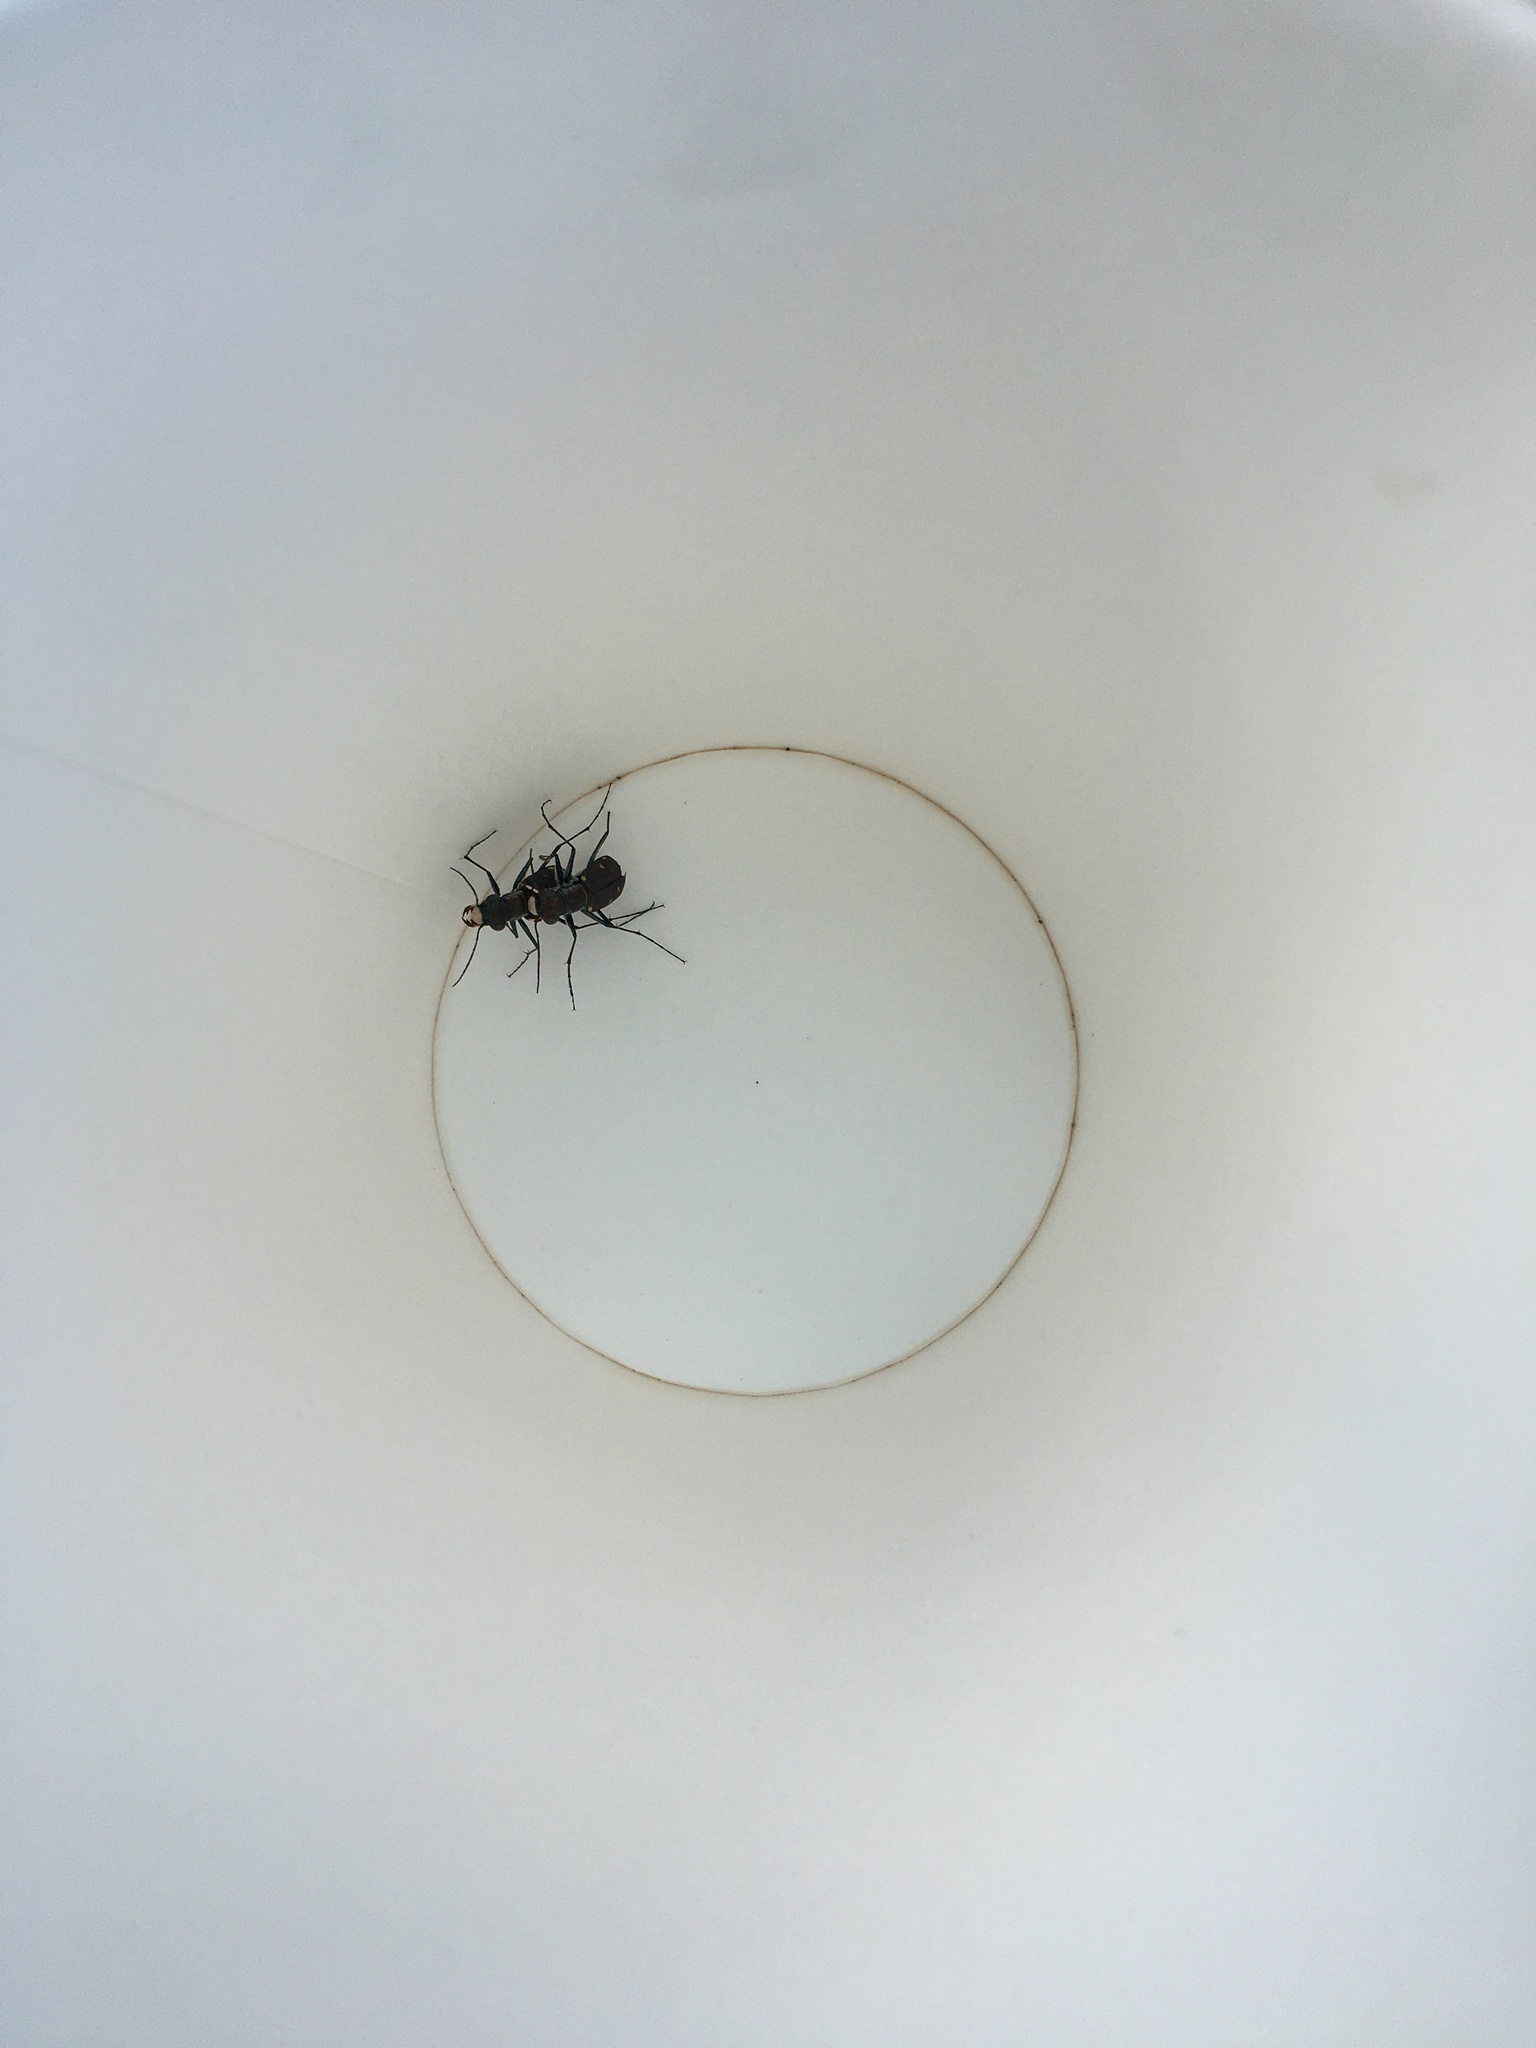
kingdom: Animalia
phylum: Arthropoda
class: Insecta
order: Coleoptera
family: Carabidae
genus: Cicindela
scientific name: Cicindela rufiventris
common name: Eastern red-bellied tiger beetle
